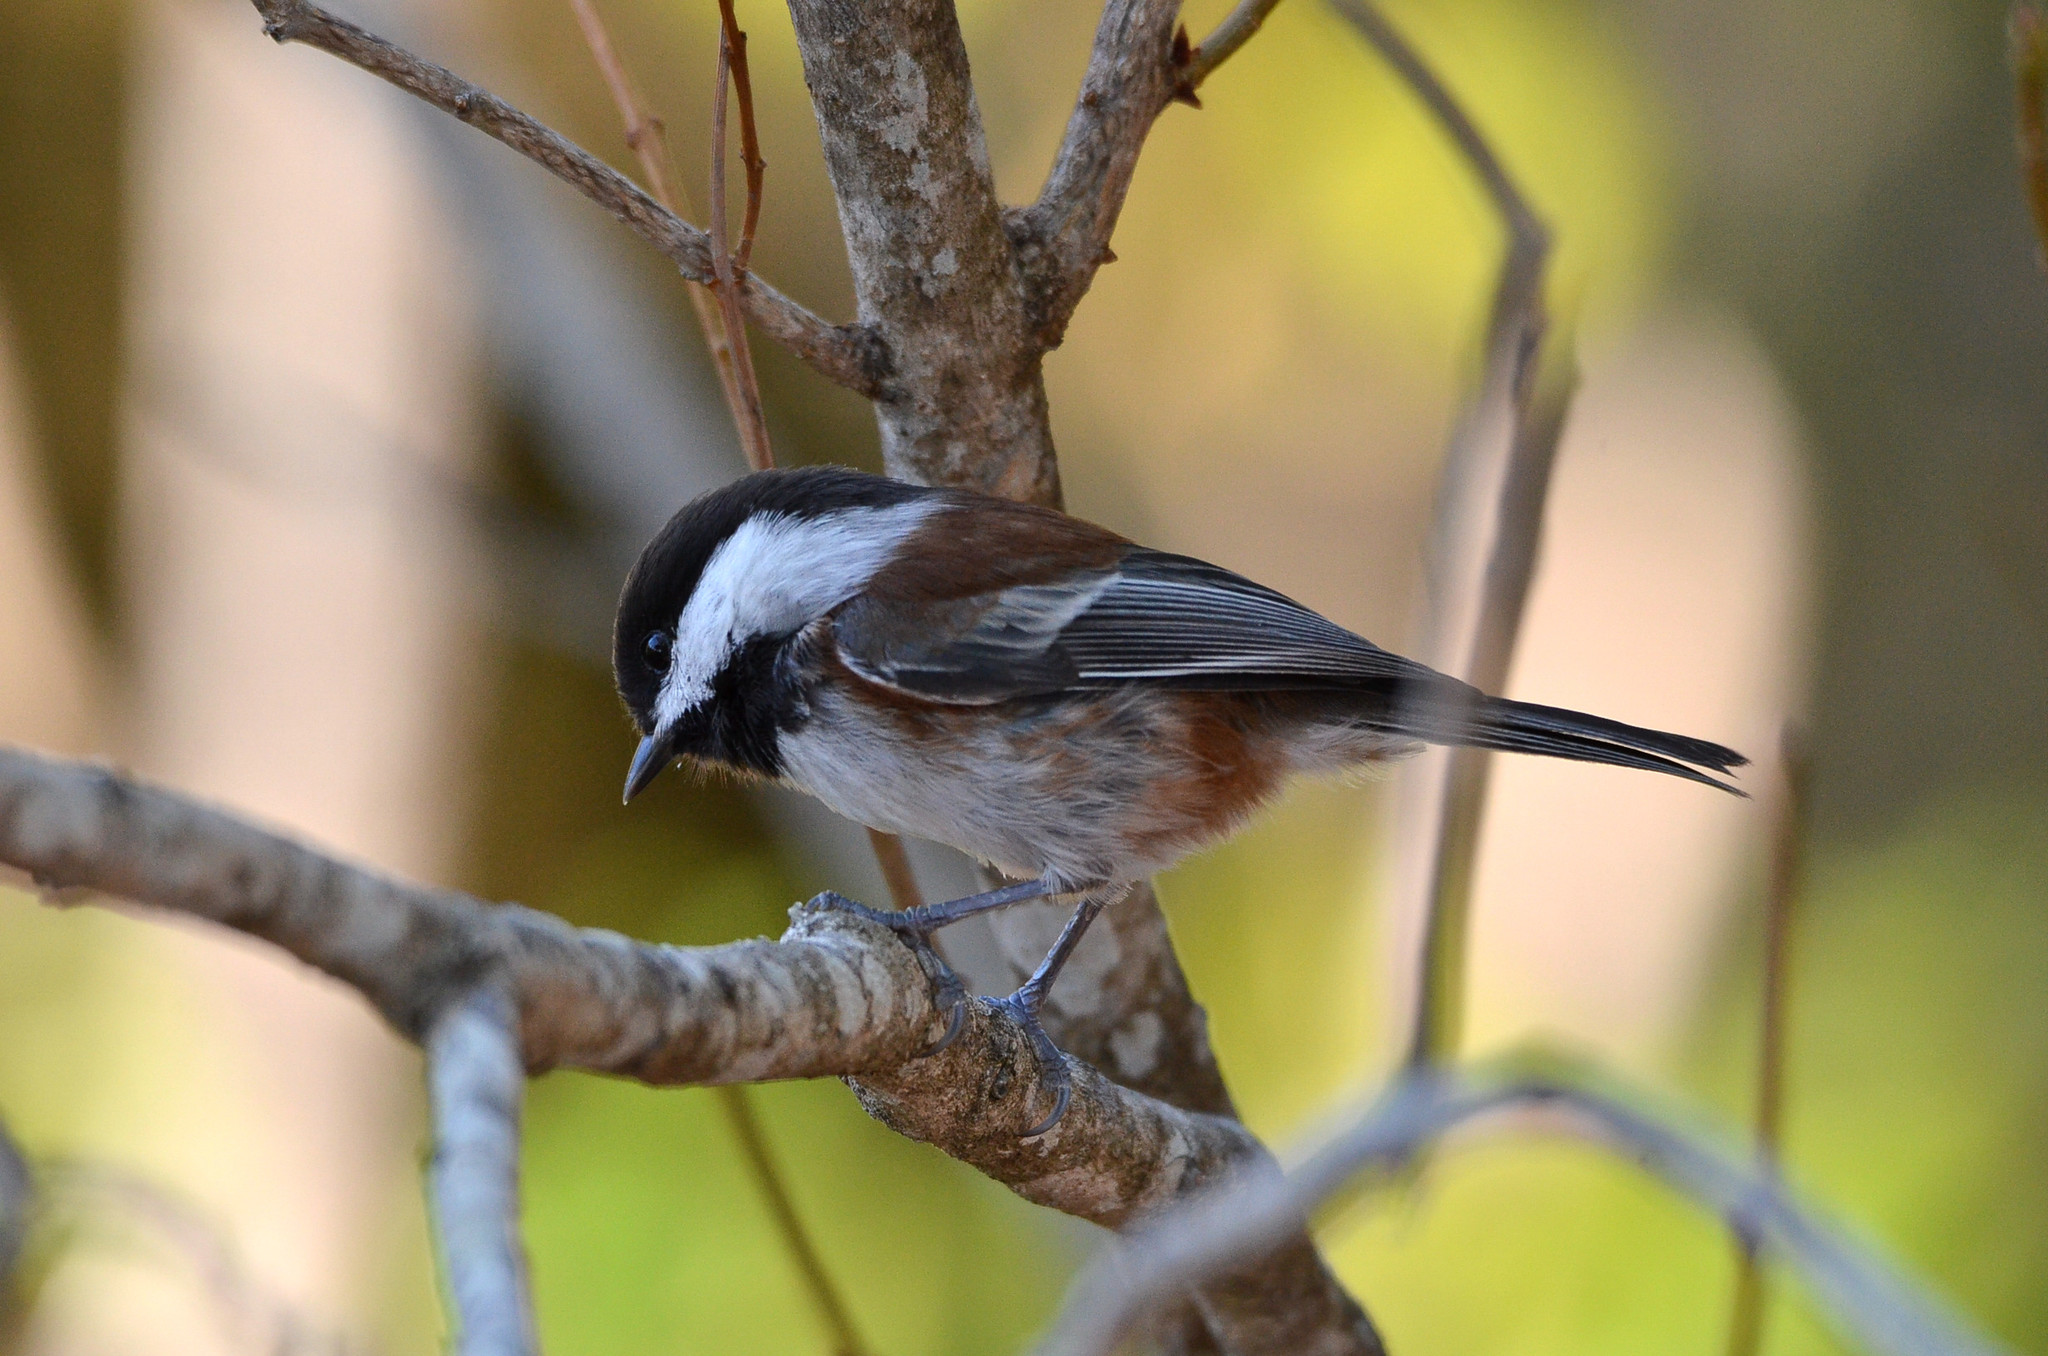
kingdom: Animalia
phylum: Chordata
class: Aves
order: Passeriformes
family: Paridae
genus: Poecile
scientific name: Poecile rufescens
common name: Chestnut-backed chickadee
